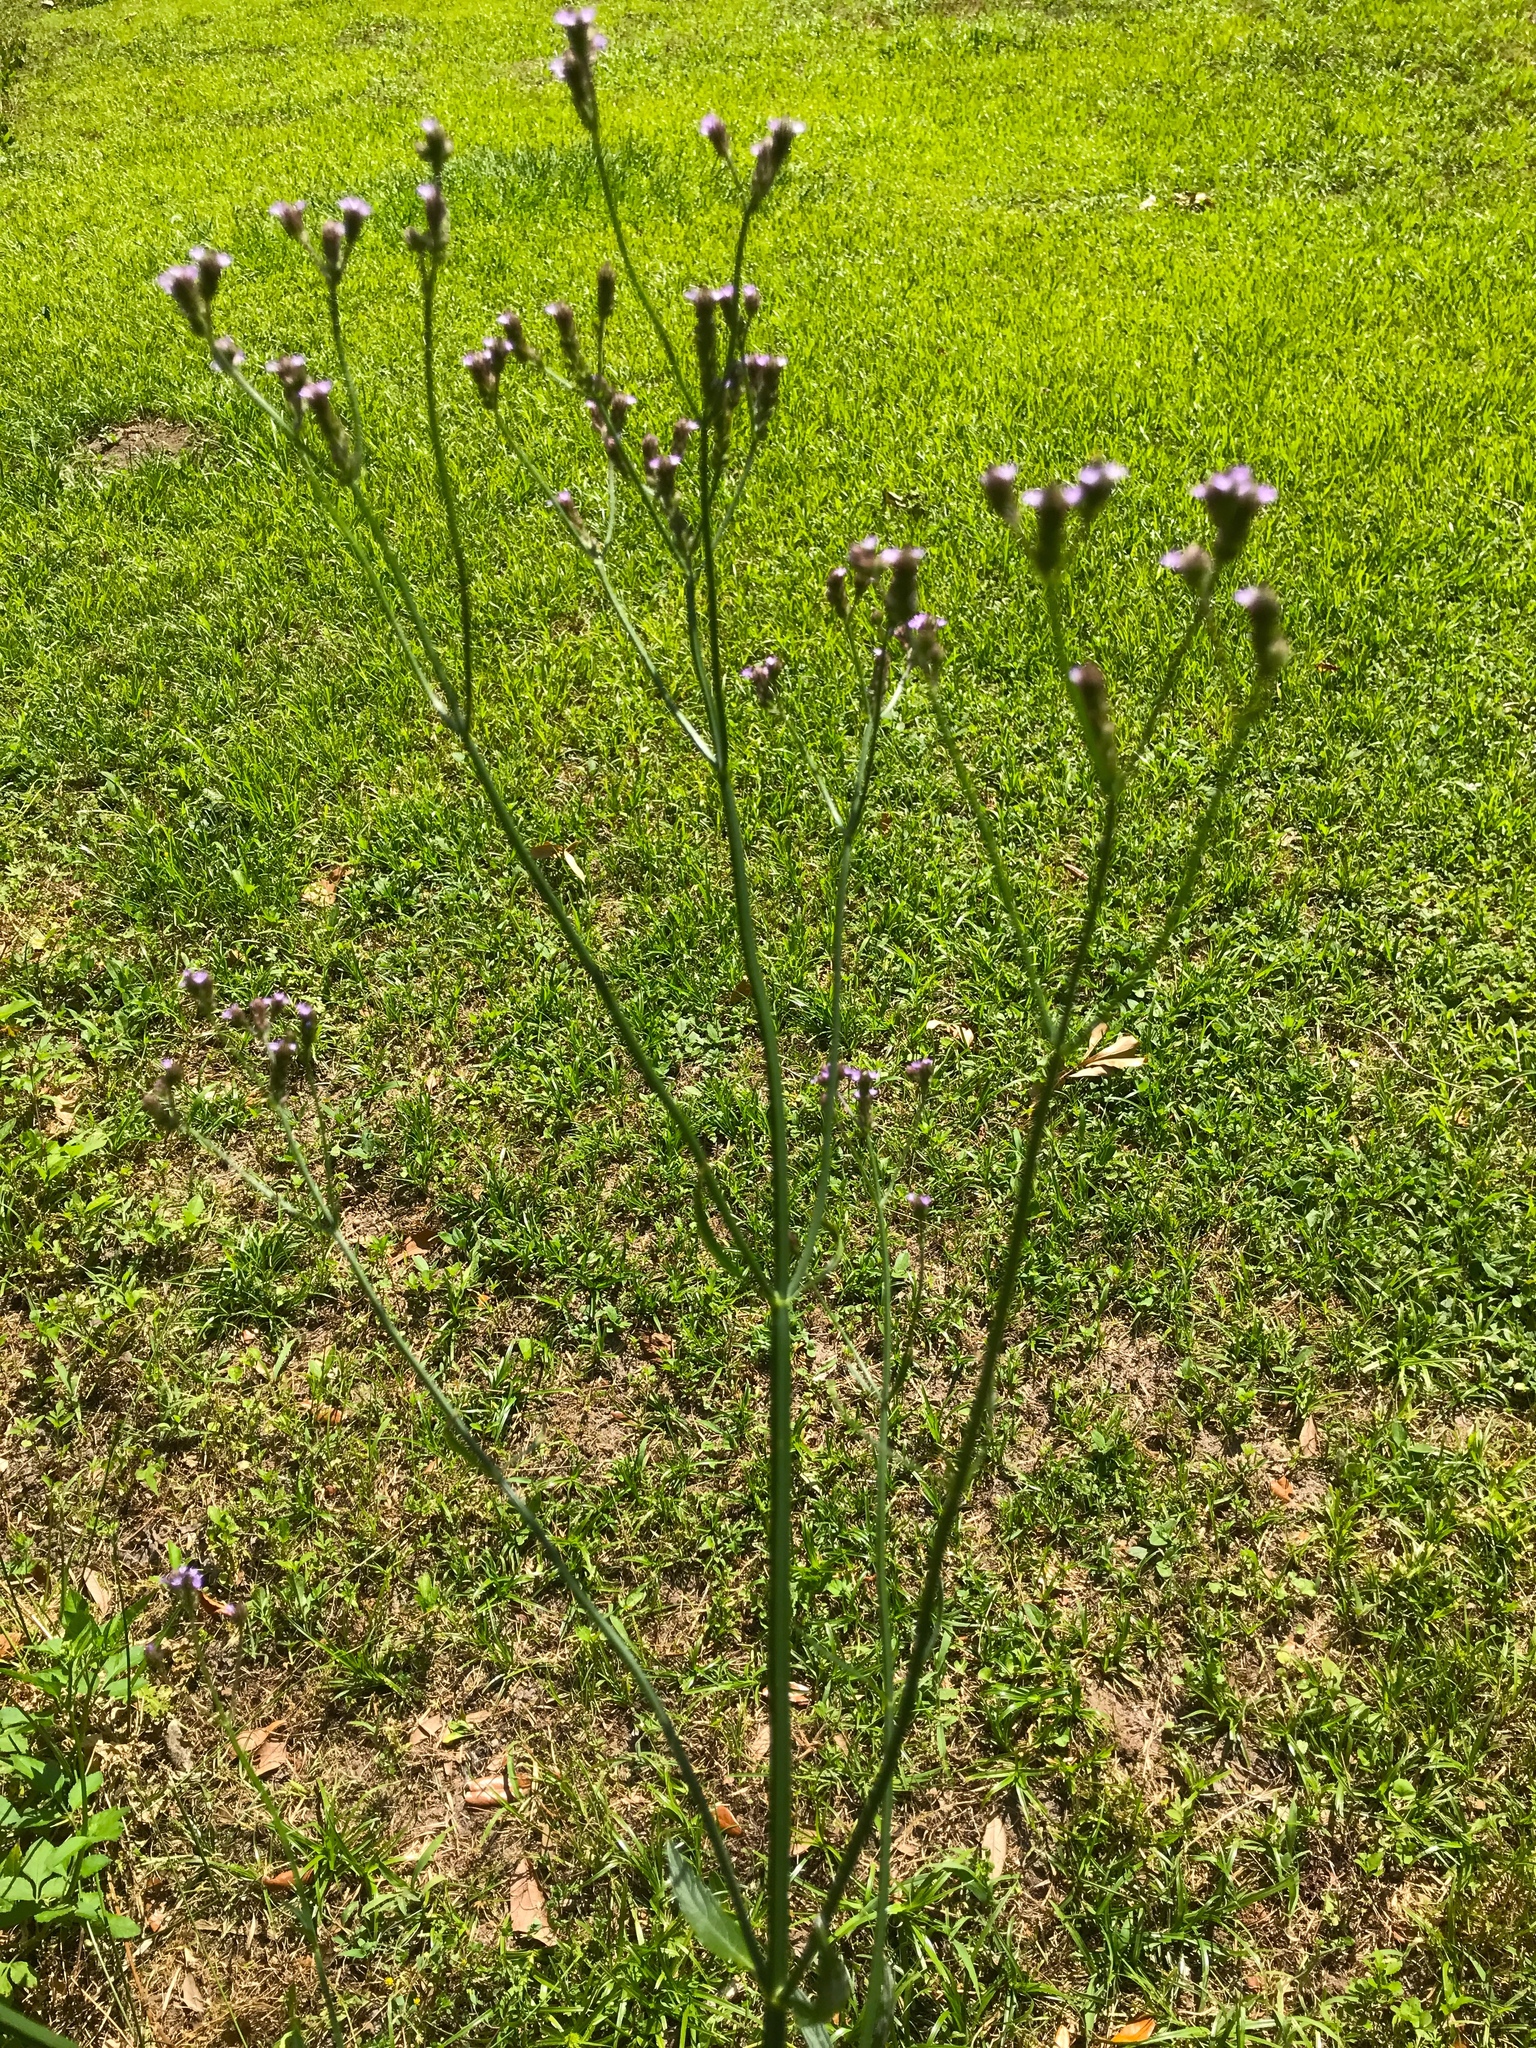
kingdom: Plantae
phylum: Tracheophyta
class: Magnoliopsida
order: Lamiales
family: Verbenaceae
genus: Verbena
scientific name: Verbena brasiliensis
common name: Brazilian vervain
